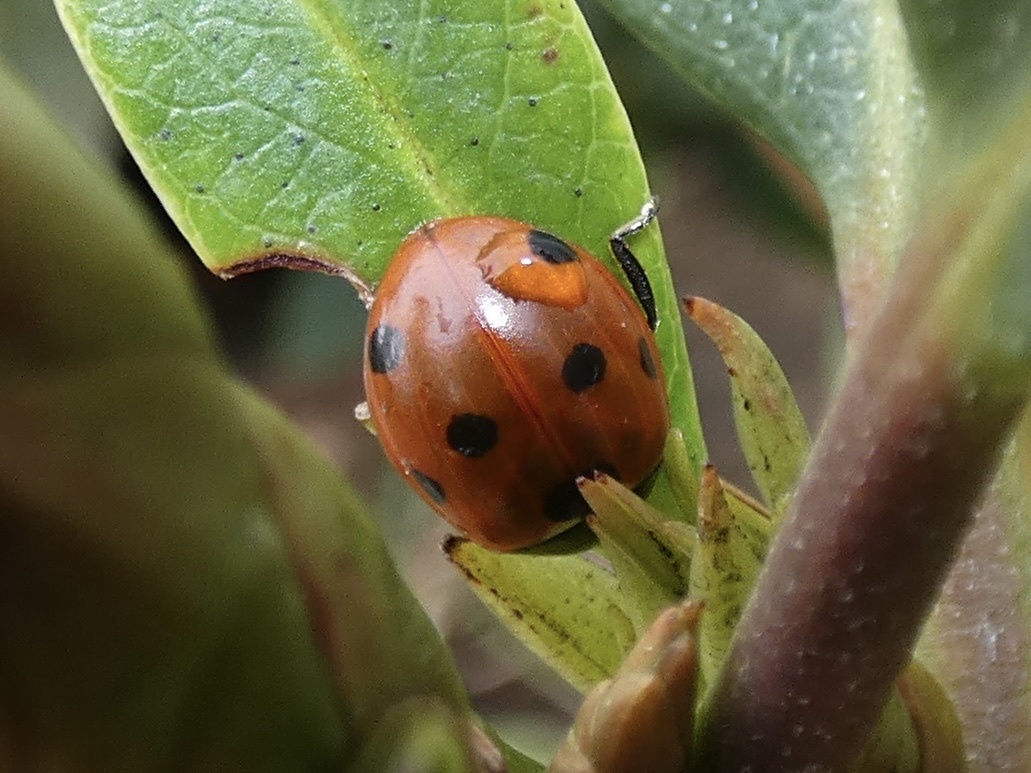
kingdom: Animalia
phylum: Arthropoda
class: Insecta
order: Coleoptera
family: Coccinellidae
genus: Coccinella
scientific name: Coccinella septempunctata
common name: Sevenspotted lady beetle
